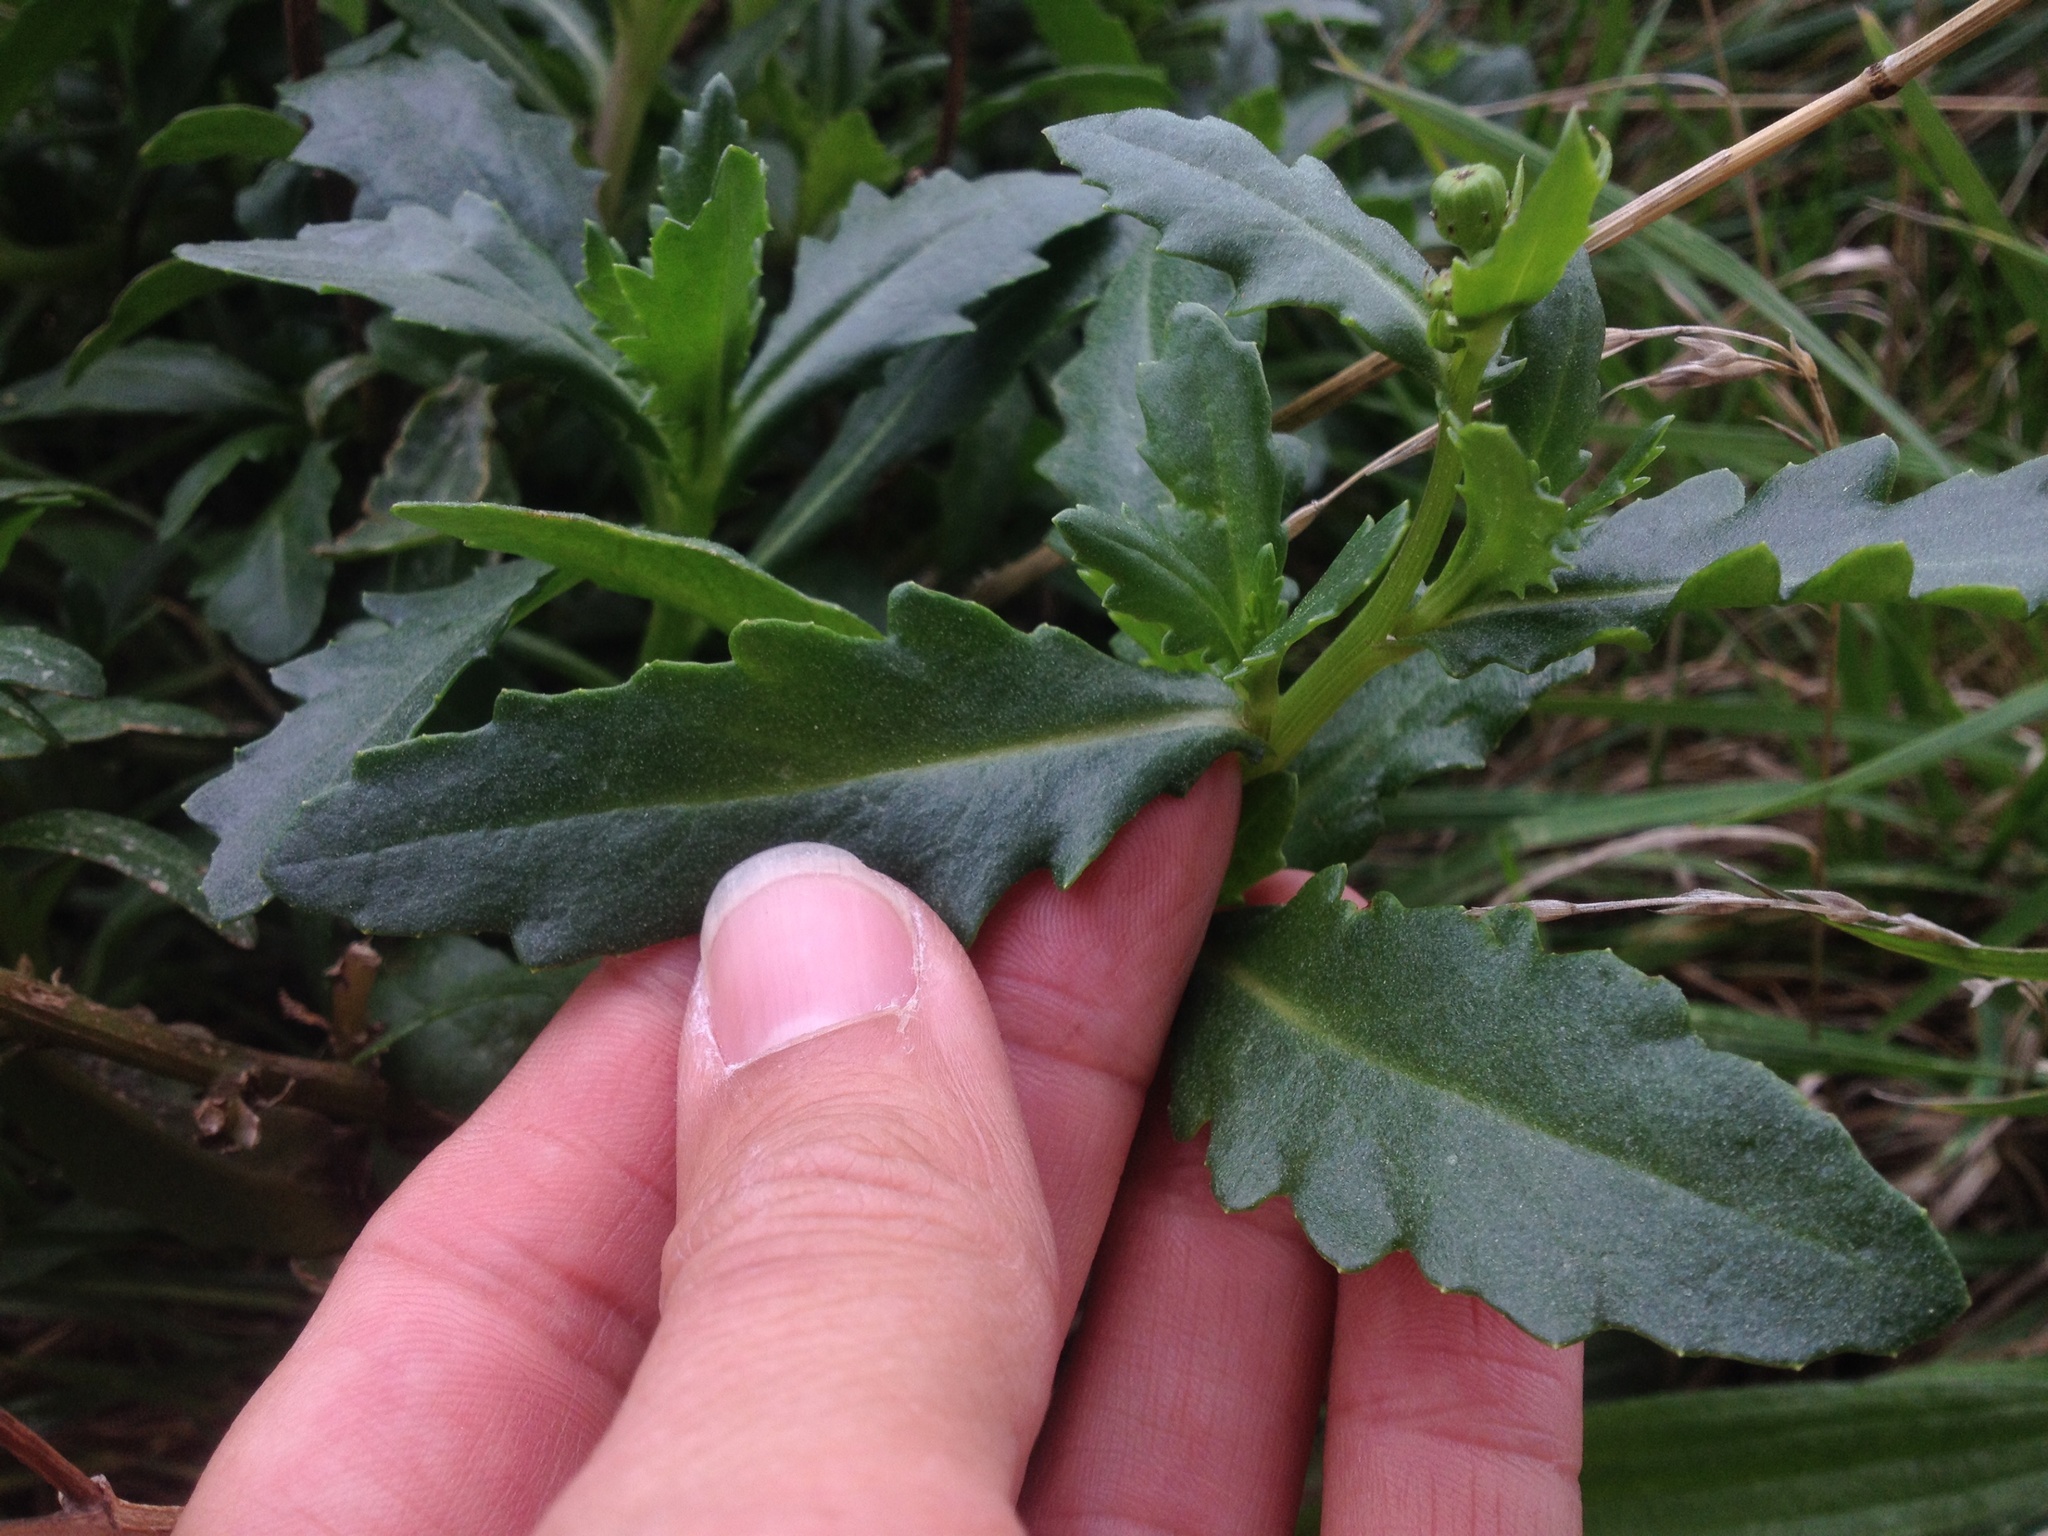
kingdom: Plantae
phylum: Tracheophyta
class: Magnoliopsida
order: Asterales
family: Asteraceae
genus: Senecio
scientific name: Senecio matatini
